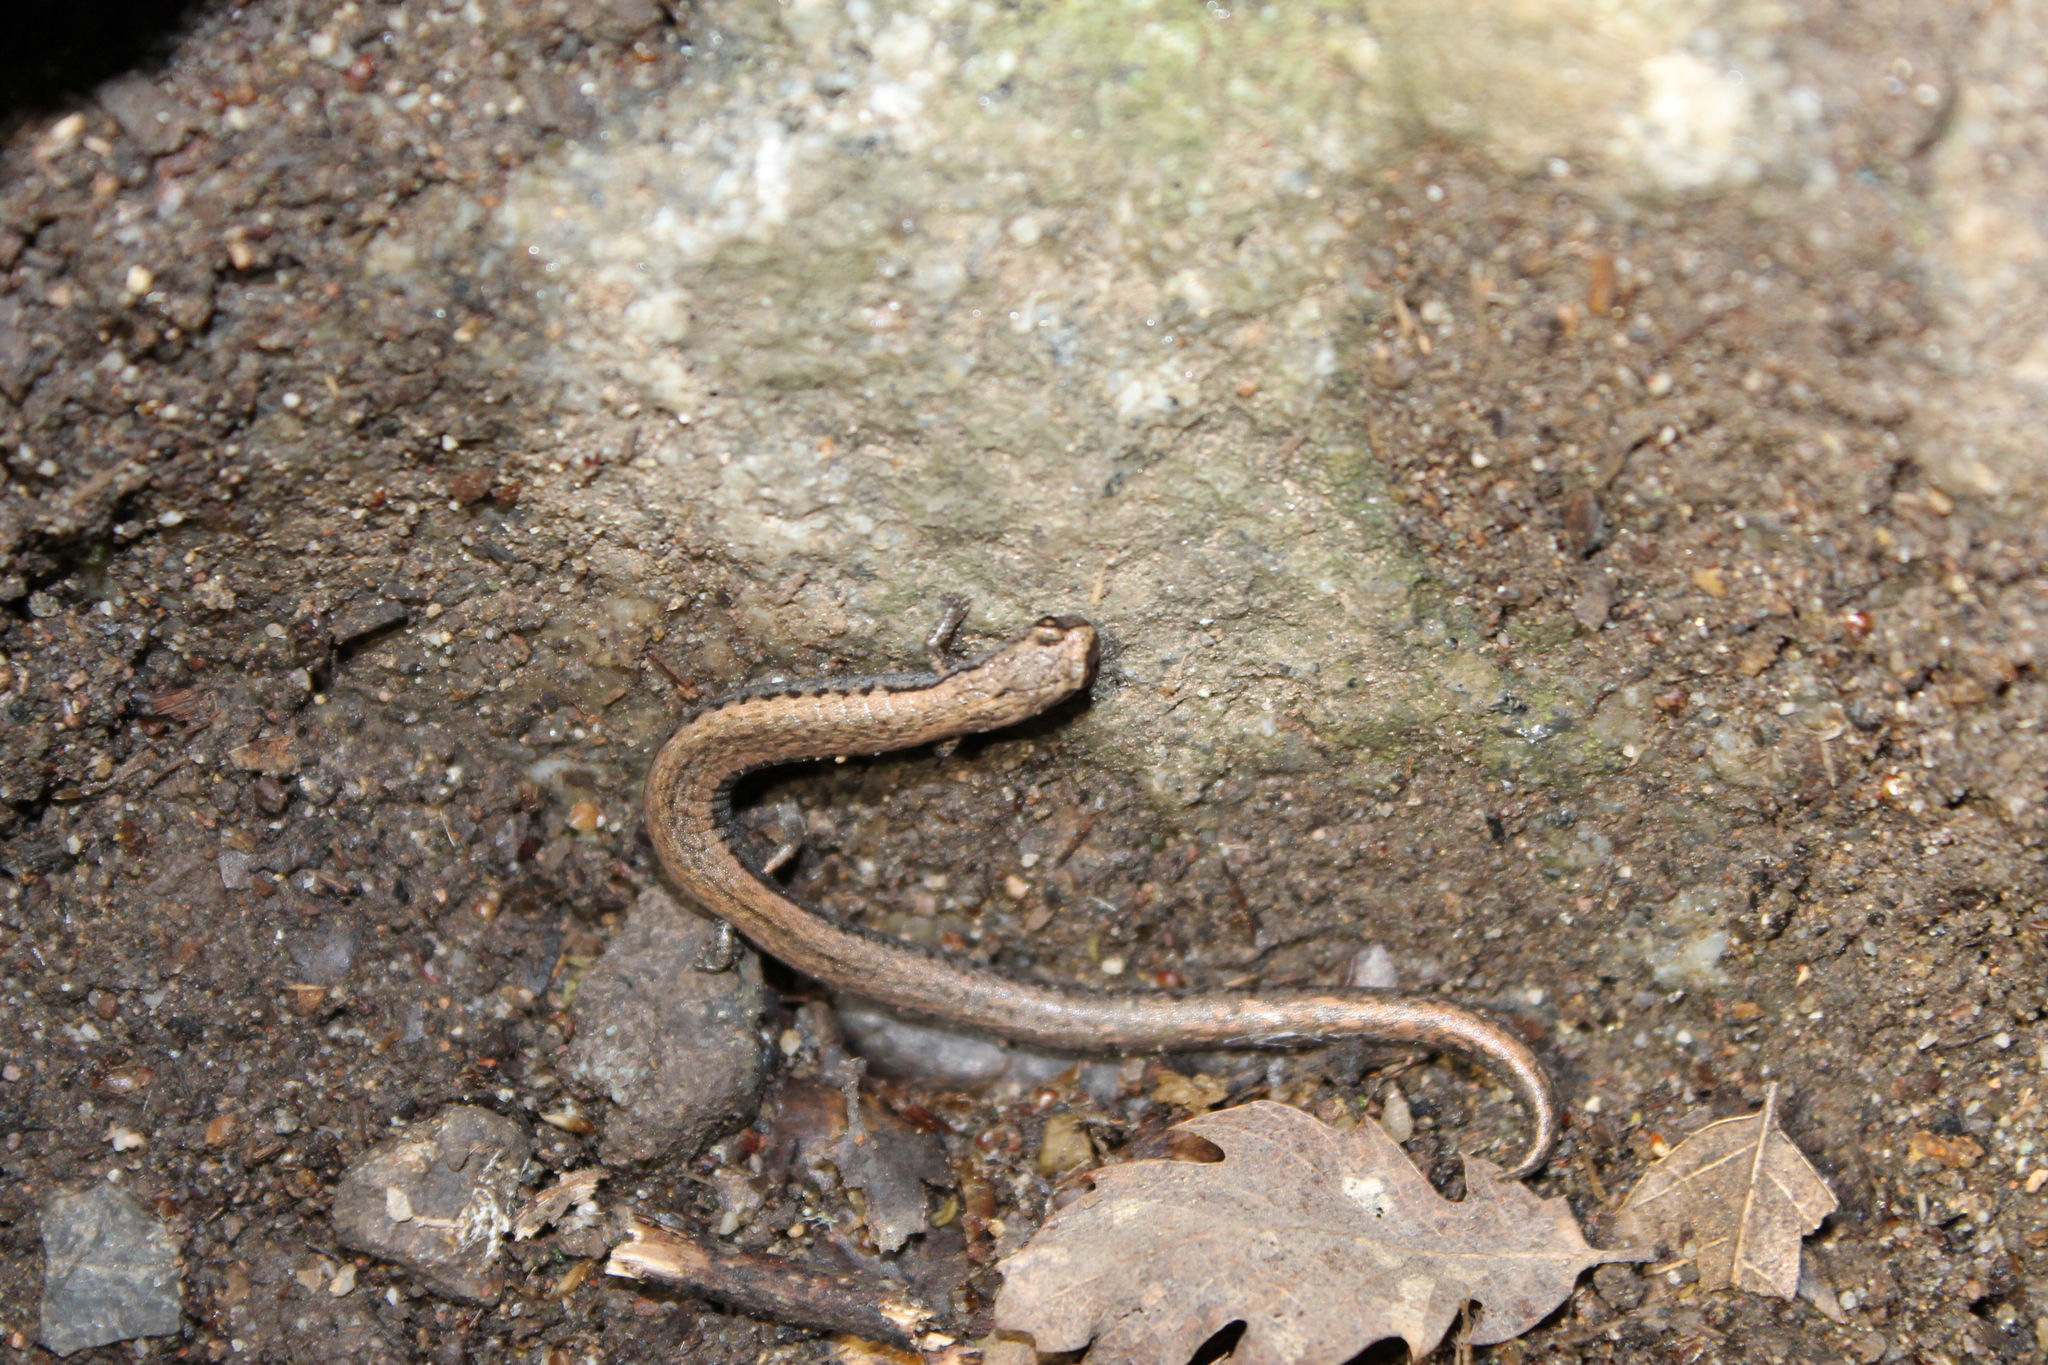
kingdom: Animalia
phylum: Chordata
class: Amphibia
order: Caudata
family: Plethodontidae
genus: Batrachoseps
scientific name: Batrachoseps gavilanensis
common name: Gabilan mountains slender salamander
